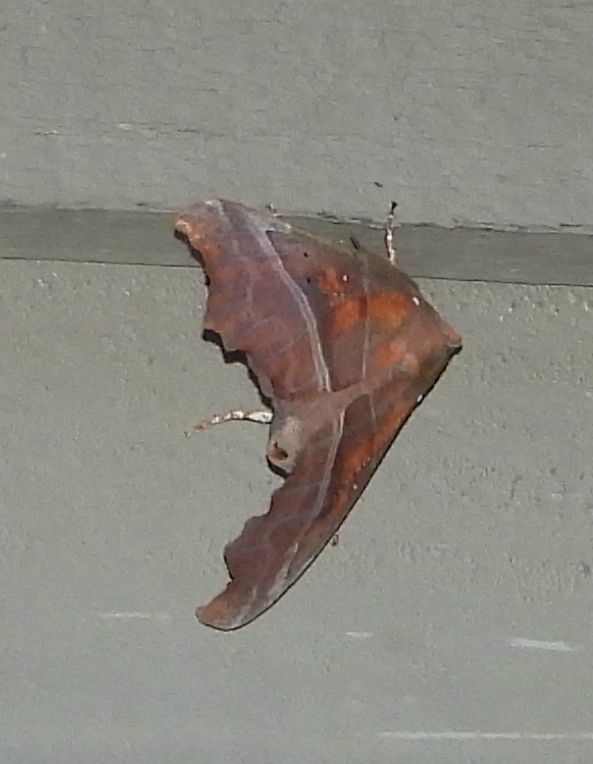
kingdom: Animalia
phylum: Arthropoda
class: Insecta
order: Lepidoptera
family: Erebidae
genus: Scoliopteryx
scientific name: Scoliopteryx libatrix
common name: Herald
